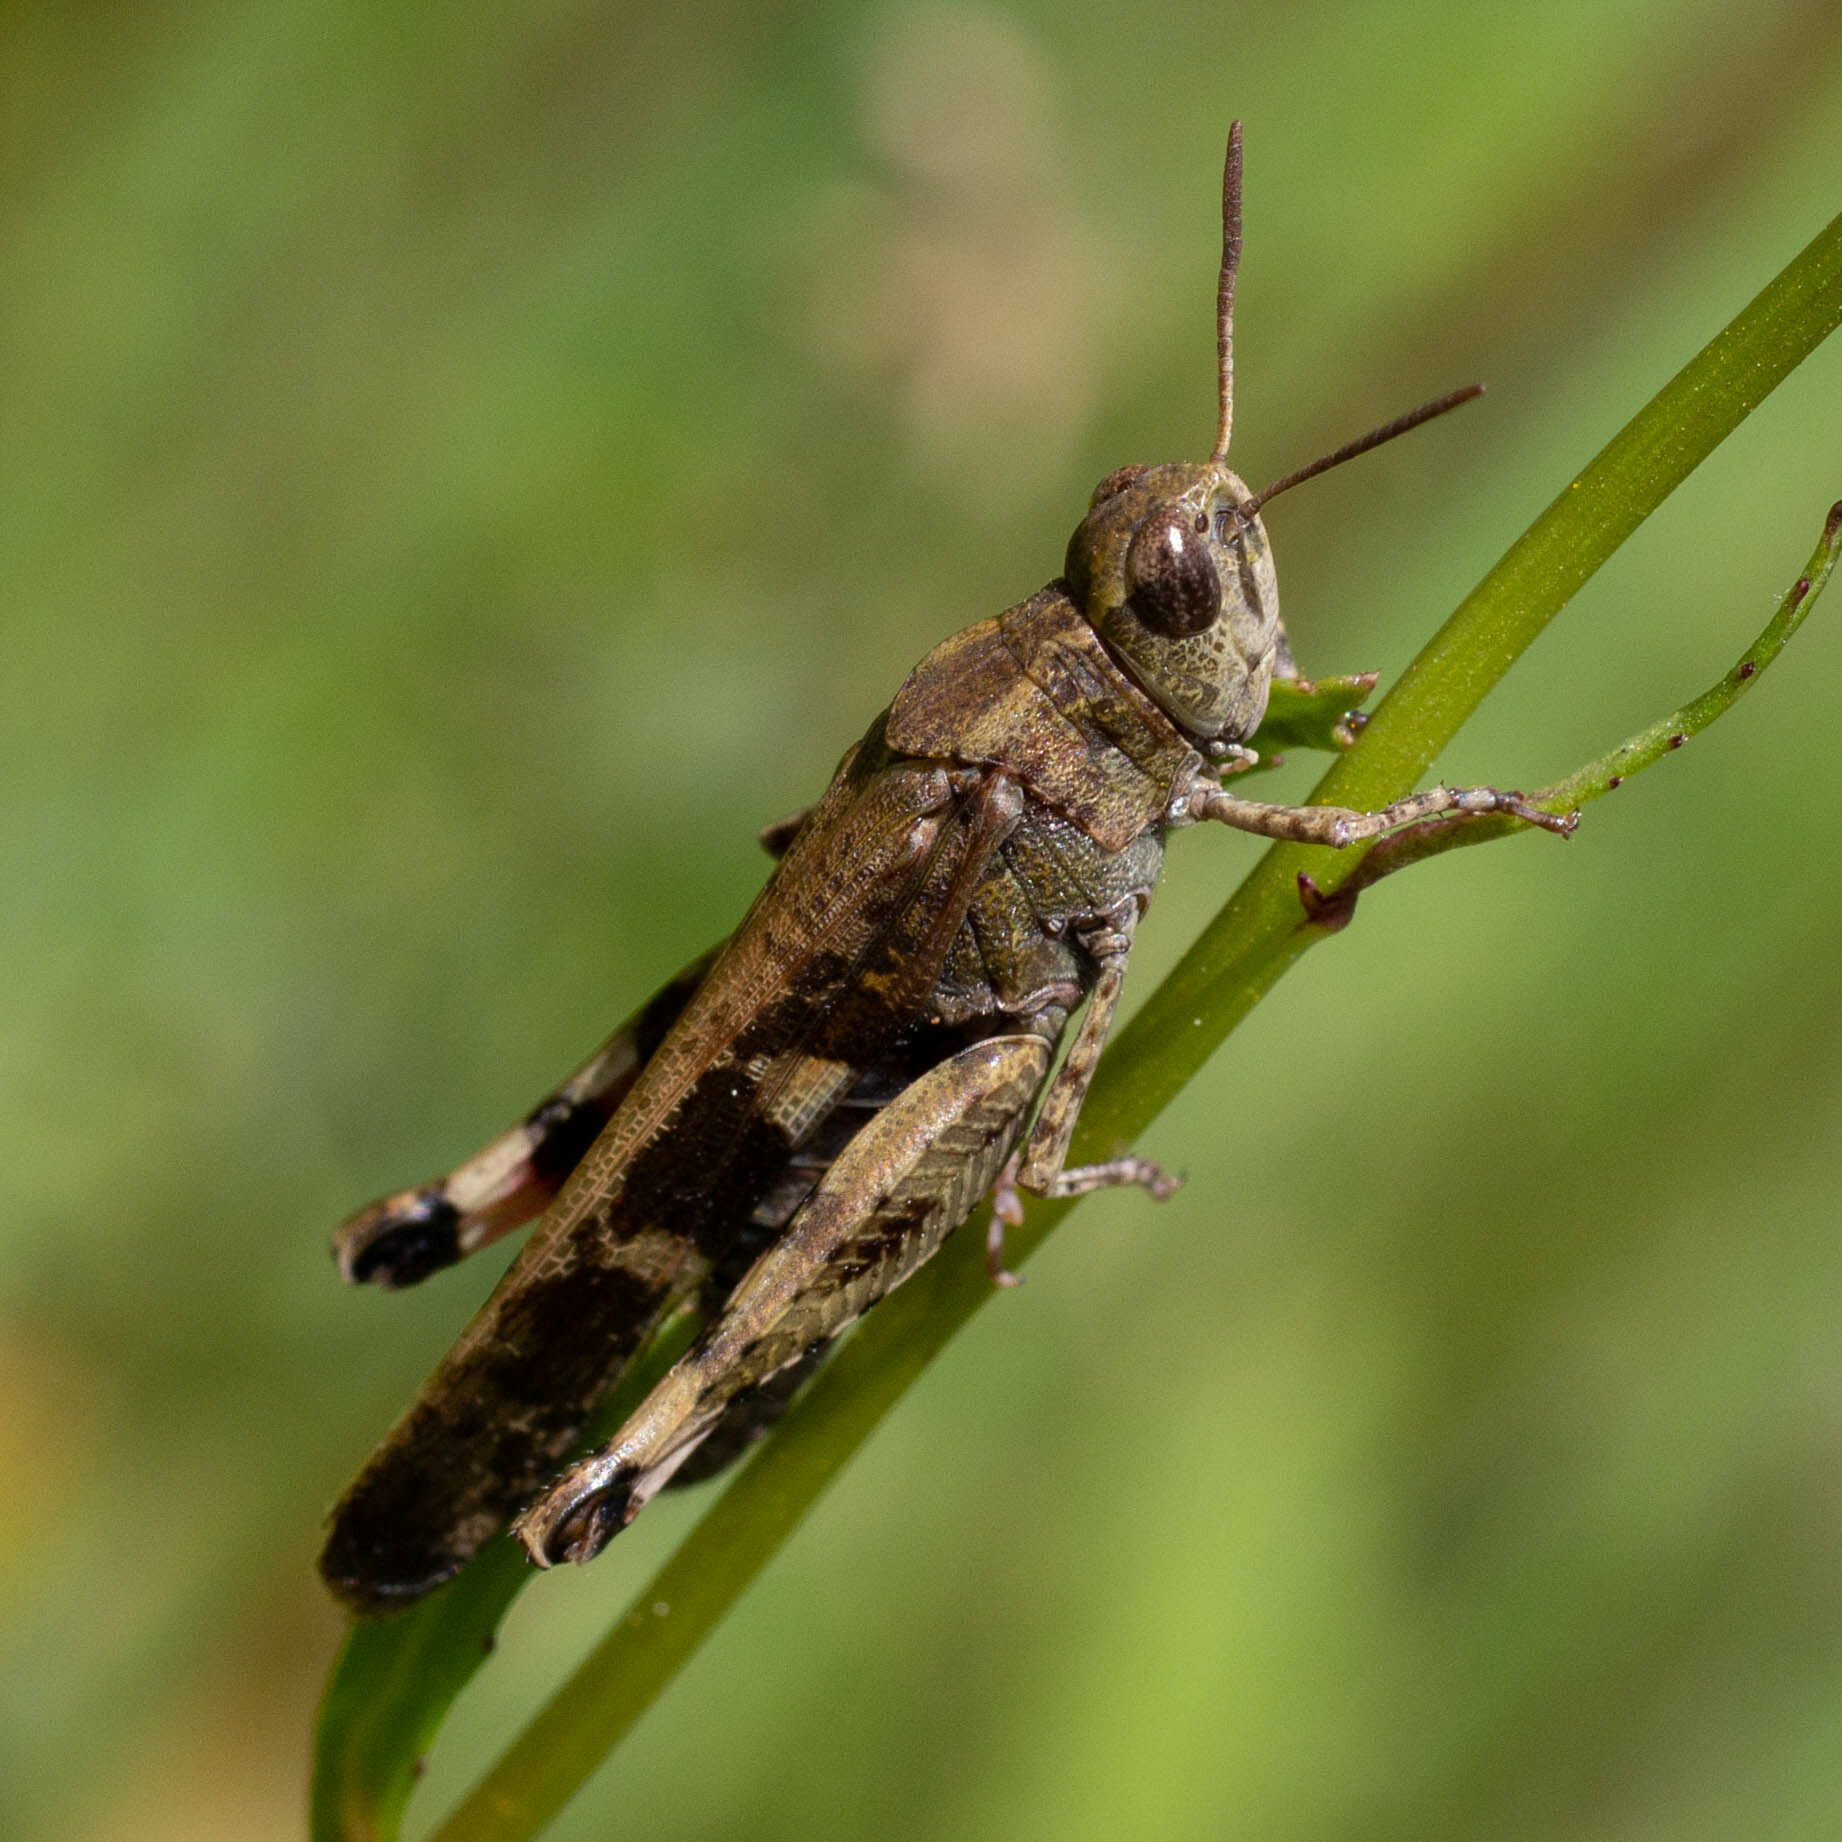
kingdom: Animalia
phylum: Arthropoda
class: Insecta
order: Orthoptera
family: Acrididae
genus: Aiolopus
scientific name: Aiolopus strepens
